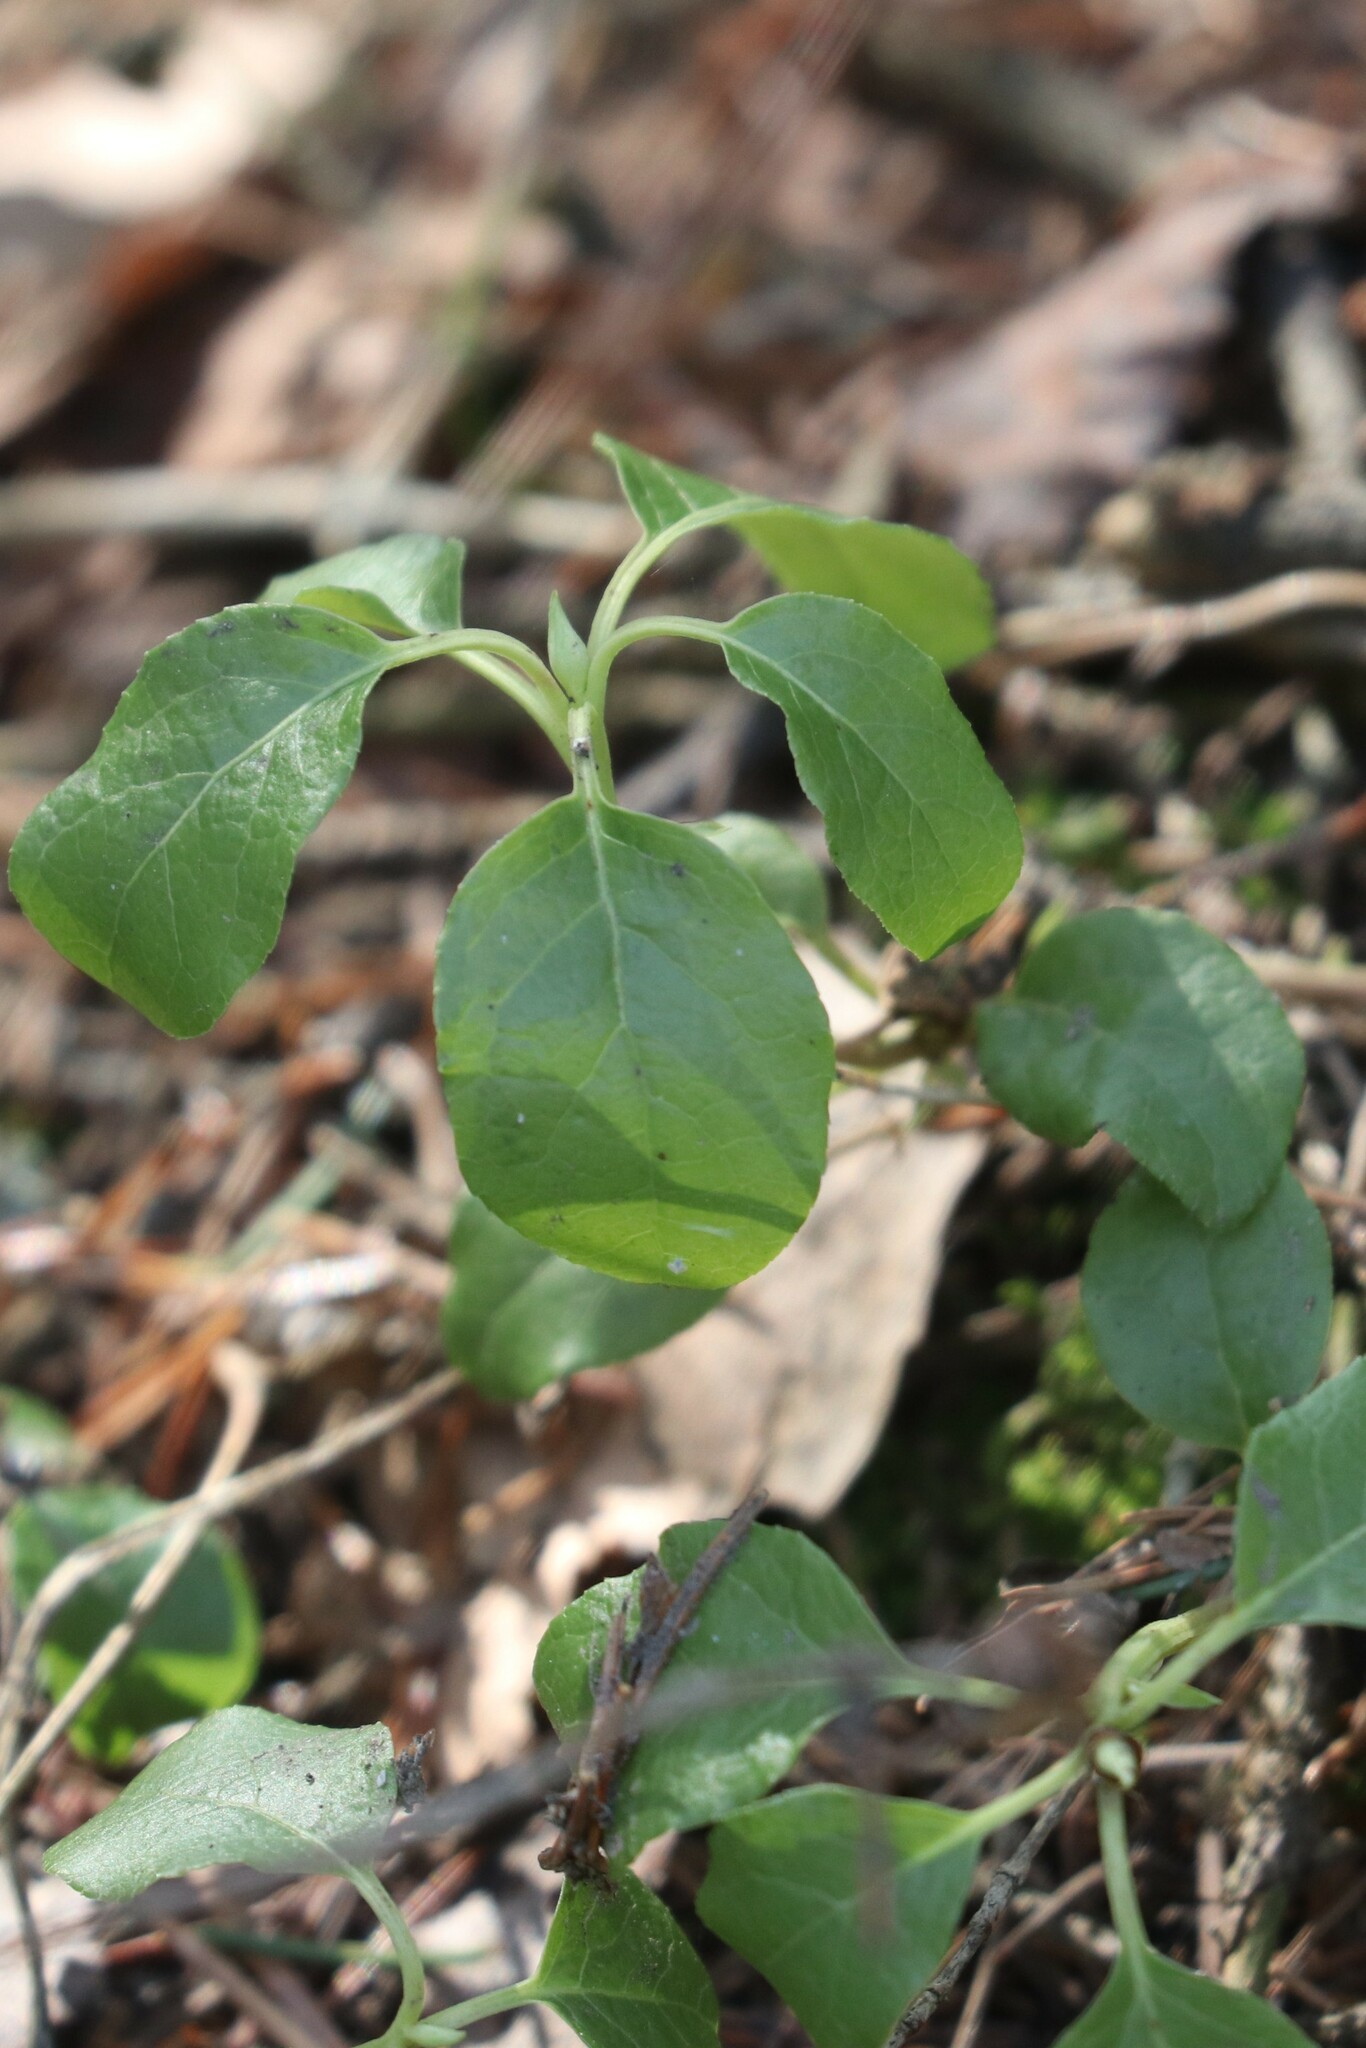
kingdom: Plantae
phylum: Tracheophyta
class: Magnoliopsida
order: Ericales
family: Ericaceae
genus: Orthilia
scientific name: Orthilia secunda
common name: One-sided orthilia
